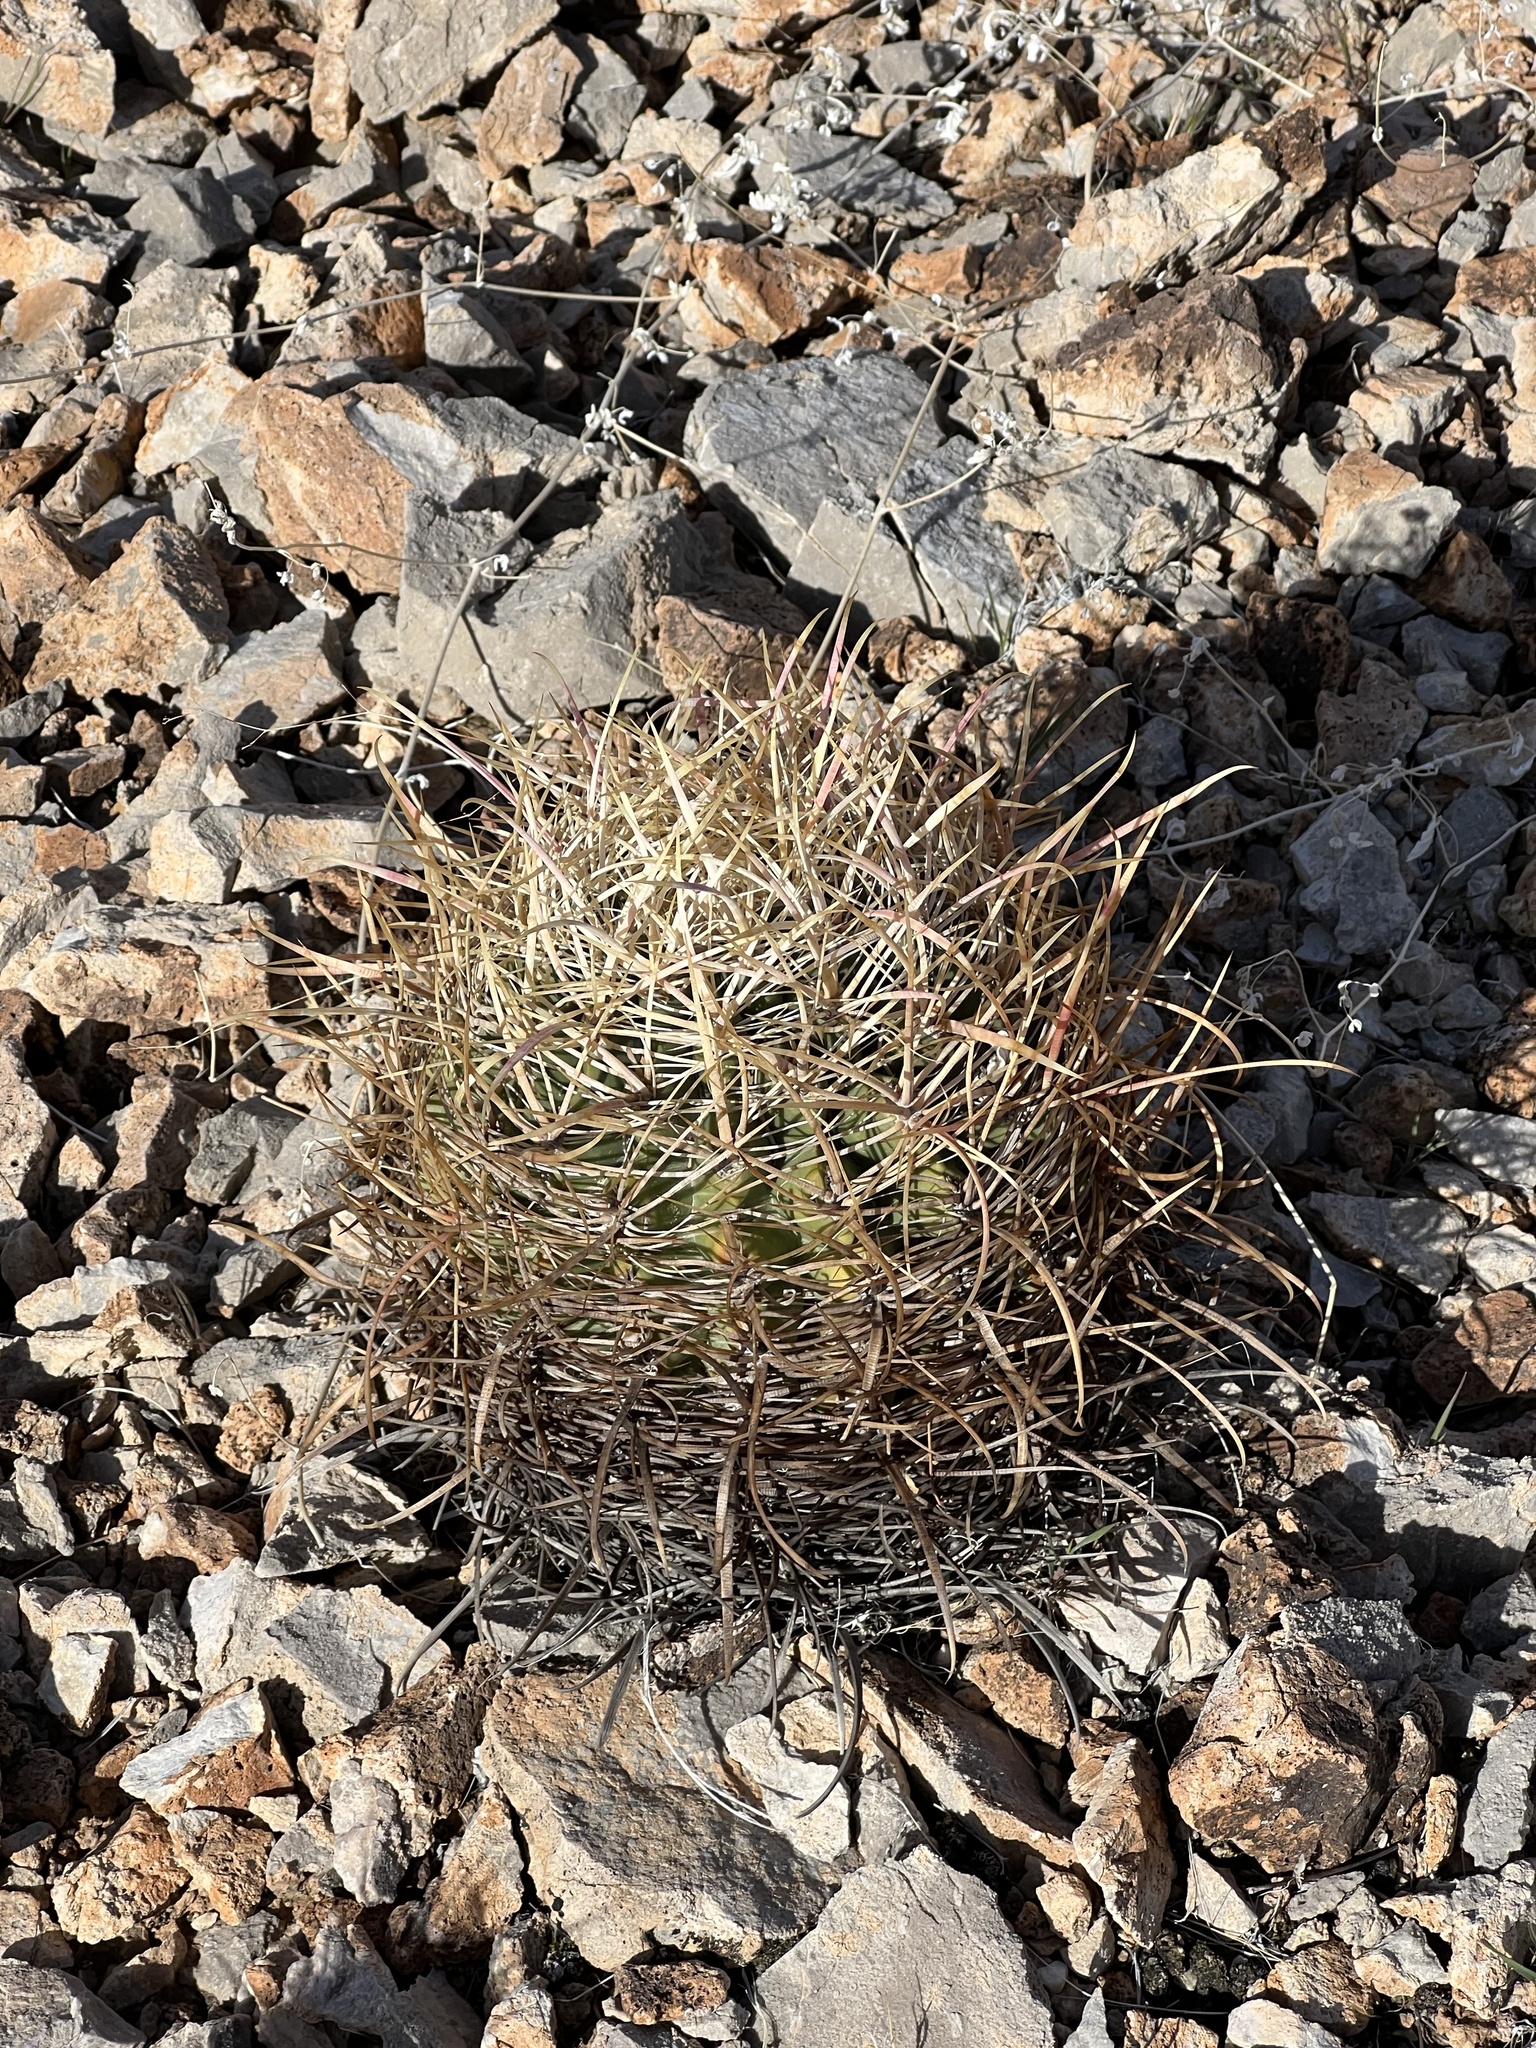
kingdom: Plantae
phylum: Tracheophyta
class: Magnoliopsida
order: Caryophyllales
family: Cactaceae
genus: Ferocactus
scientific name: Ferocactus cylindraceus
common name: California barrel cactus
